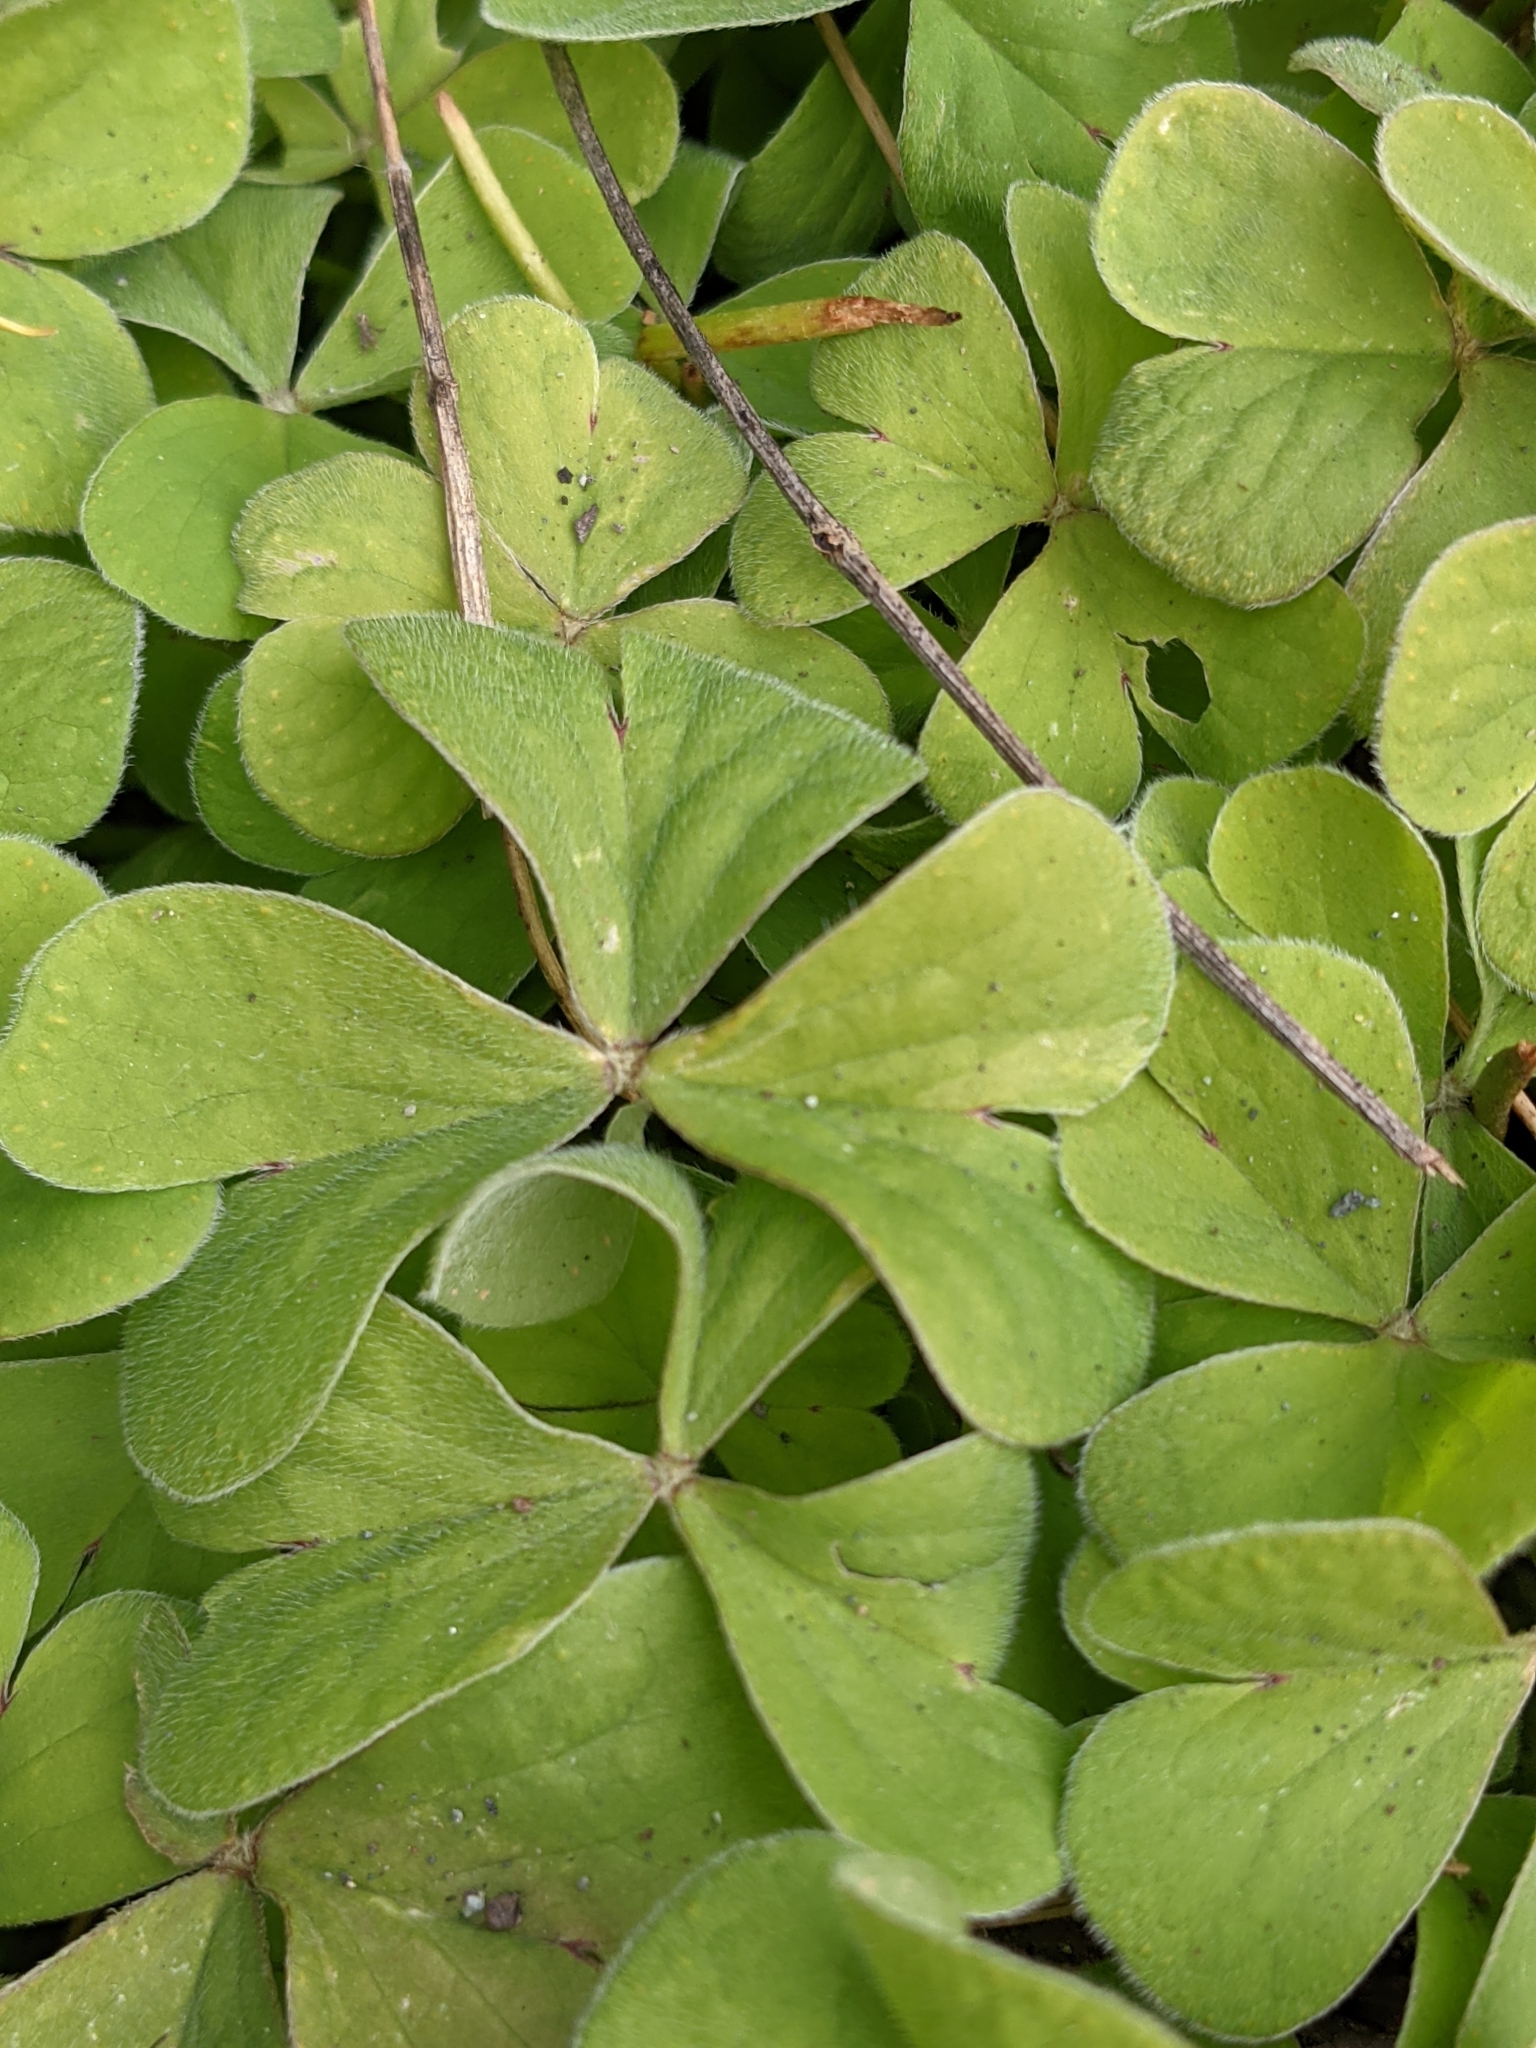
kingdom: Plantae
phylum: Tracheophyta
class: Magnoliopsida
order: Oxalidales
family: Oxalidaceae
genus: Oxalis
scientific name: Oxalis articulata
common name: Pink-sorrel
